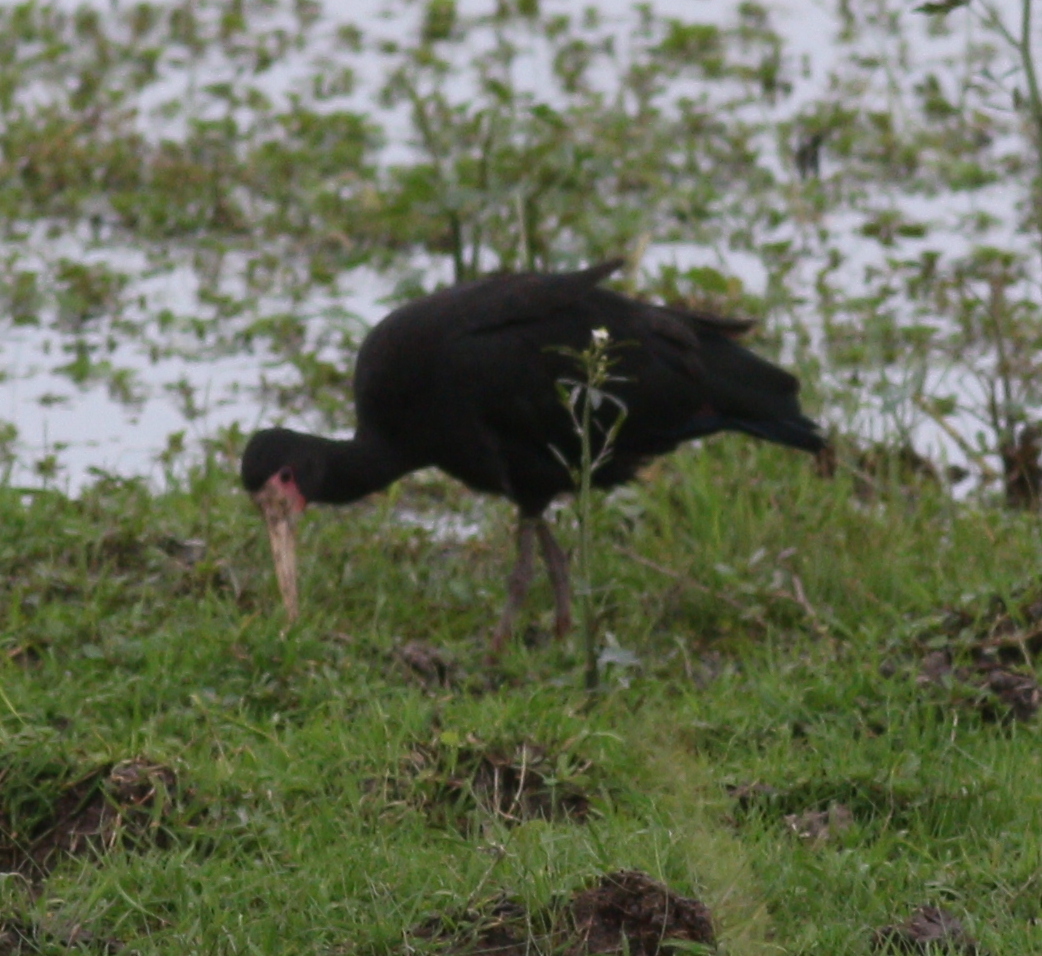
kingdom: Animalia
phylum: Chordata
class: Aves
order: Pelecaniformes
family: Threskiornithidae
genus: Phimosus
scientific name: Phimosus infuscatus
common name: Bare-faced ibis
